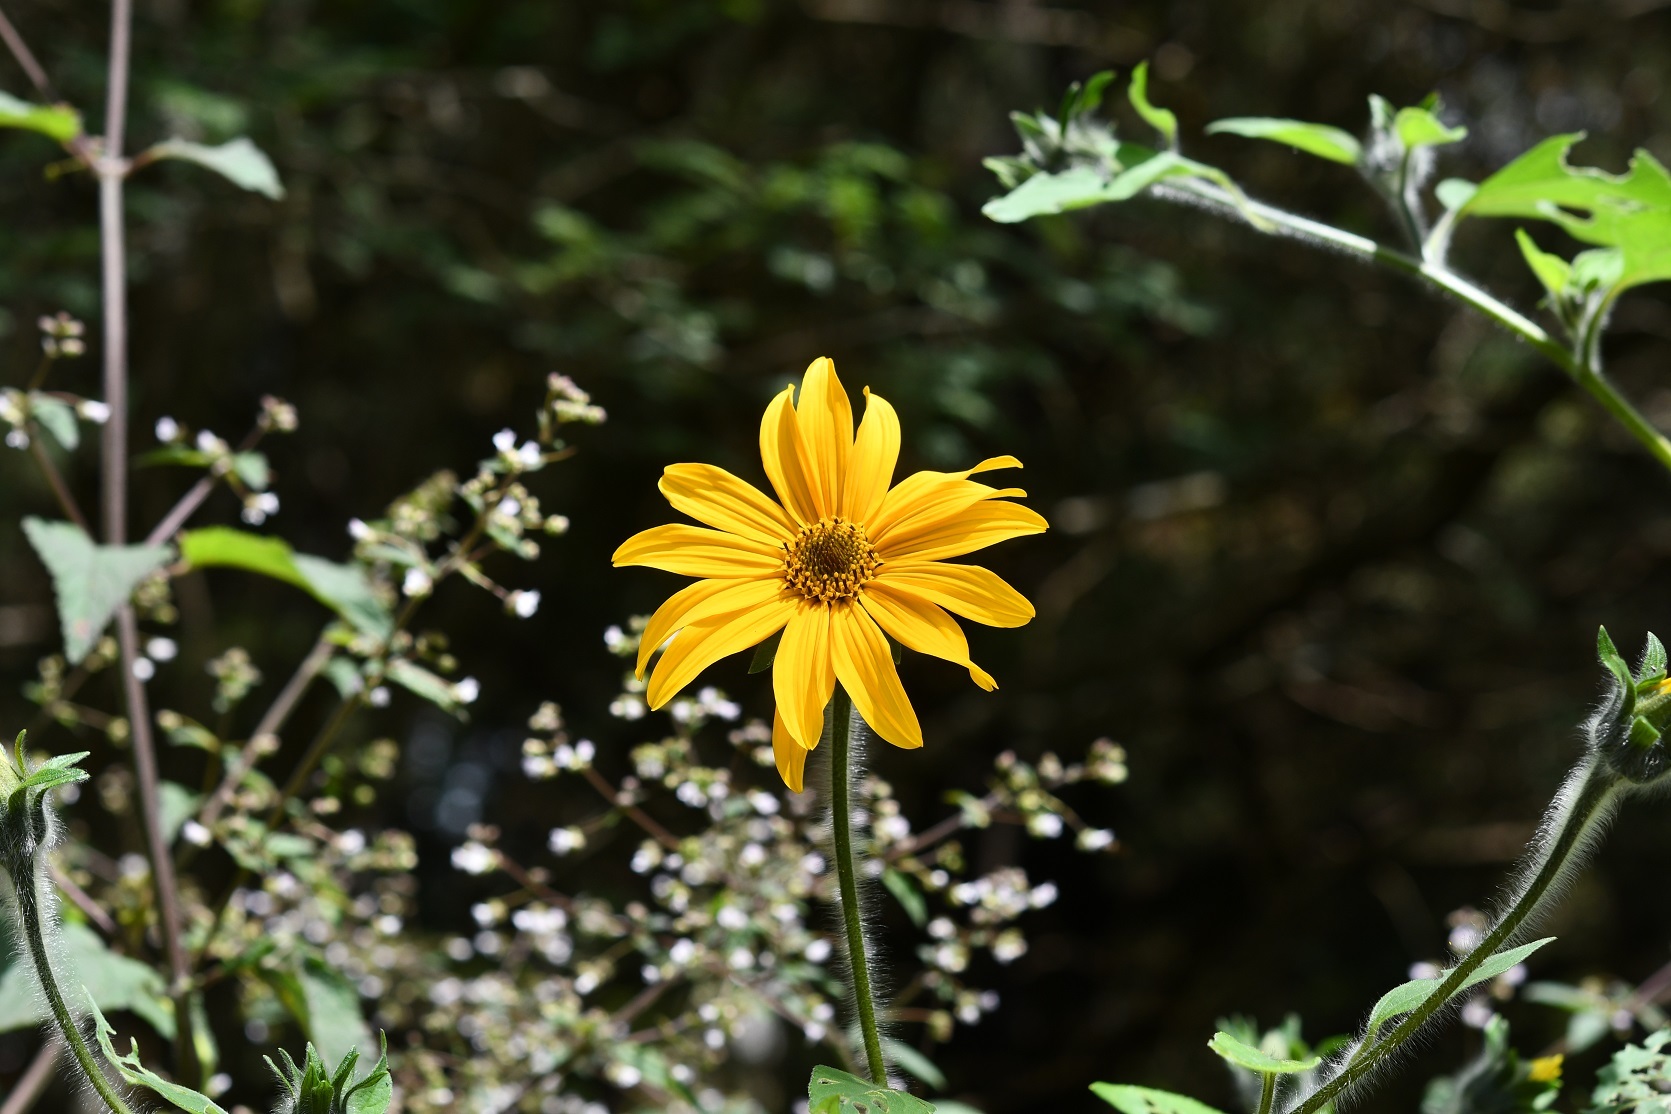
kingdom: Plantae
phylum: Tracheophyta
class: Magnoliopsida
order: Asterales
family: Asteraceae
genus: Tithonia
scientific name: Tithonia tubaeformis
